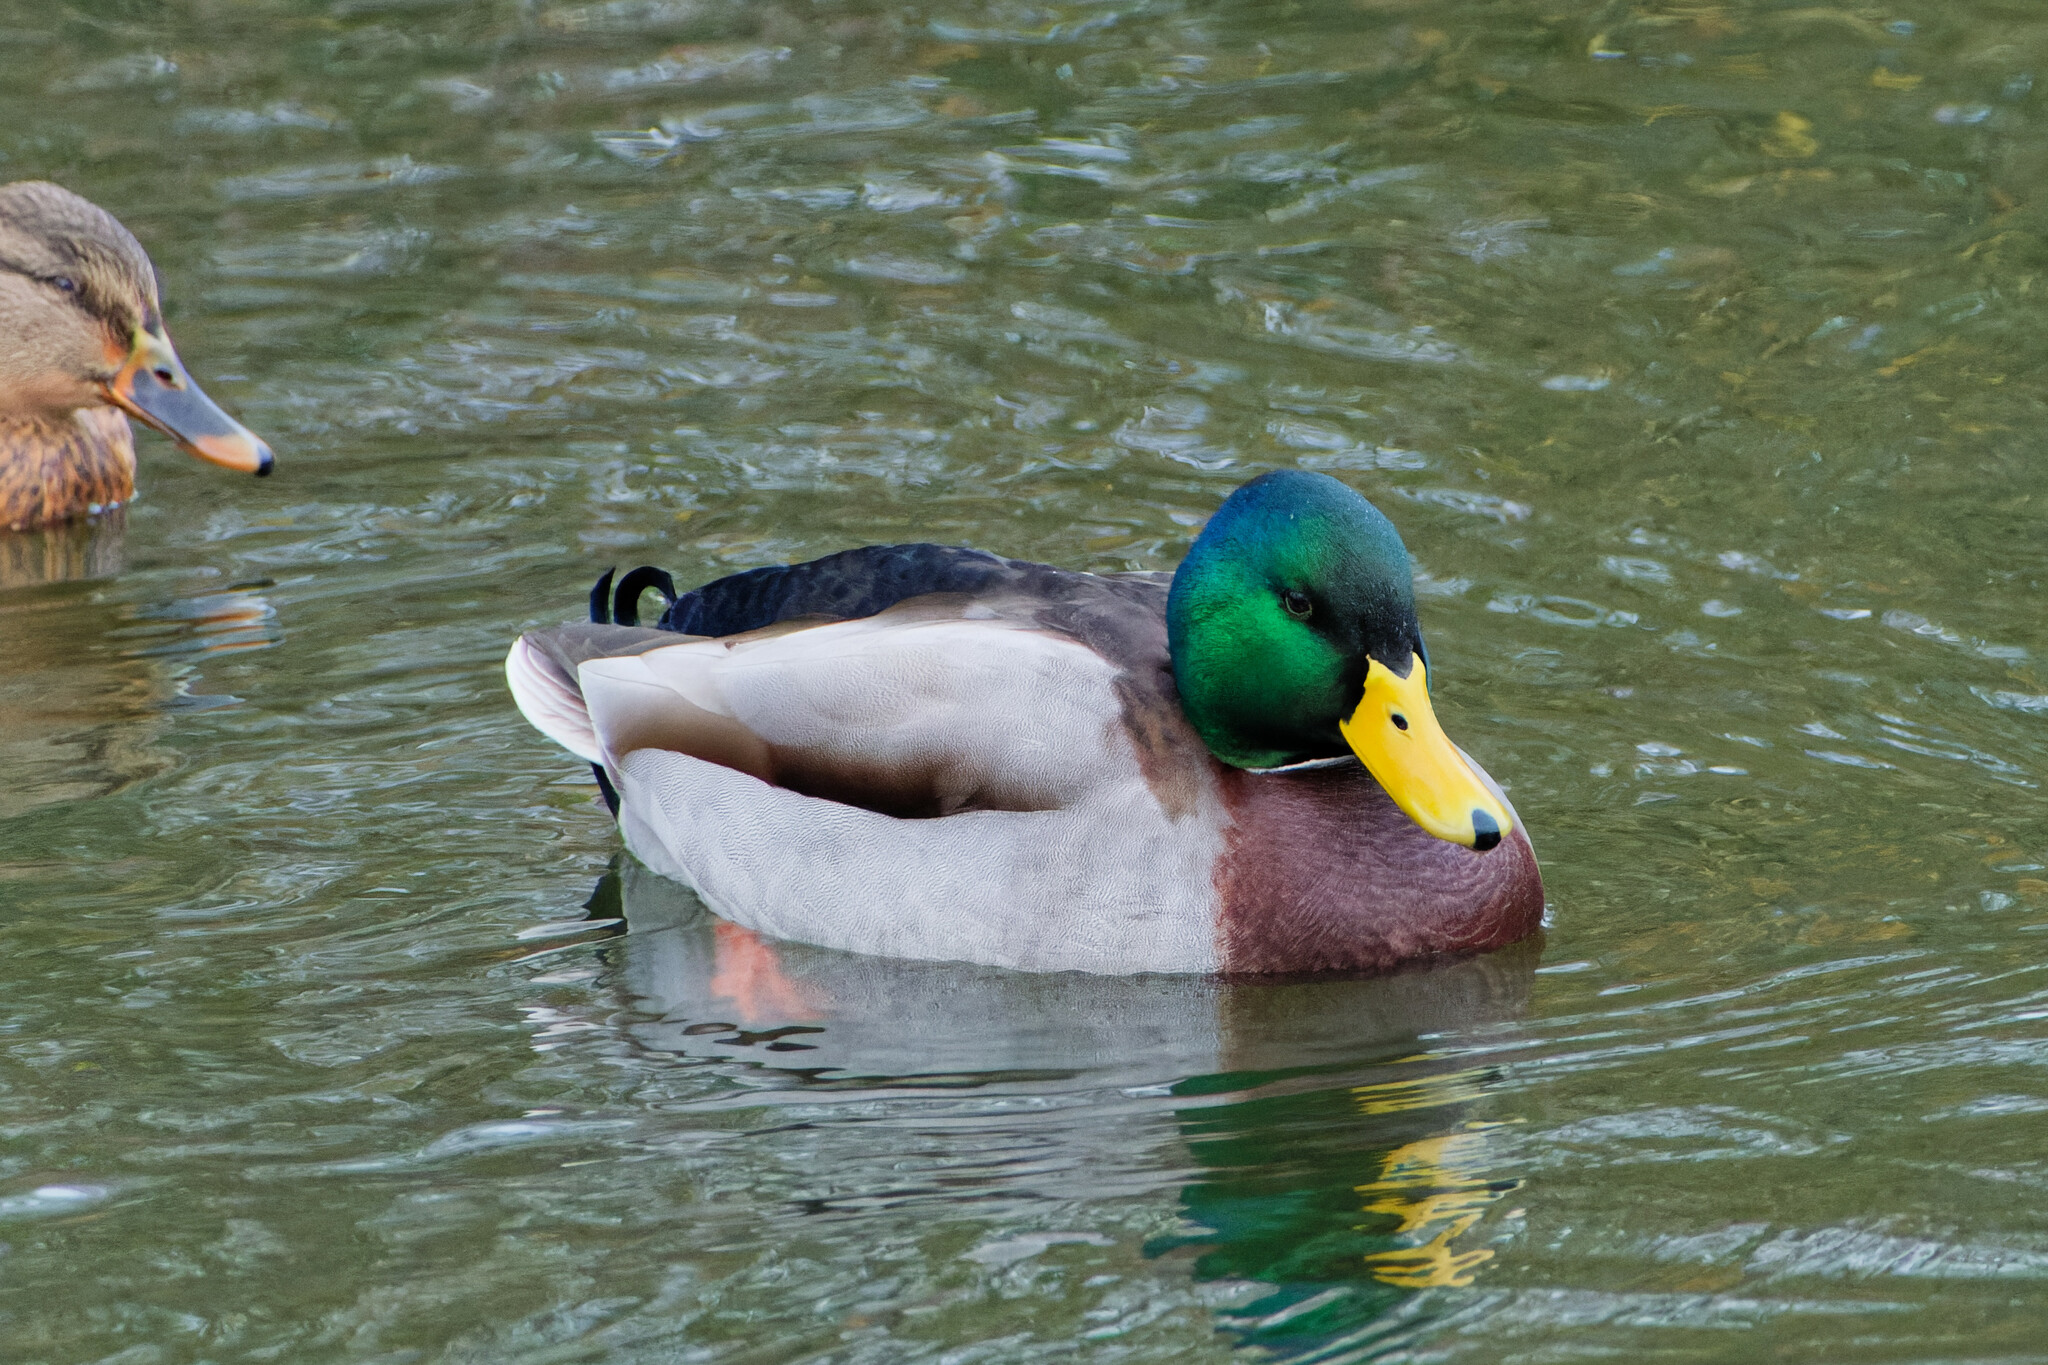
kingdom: Animalia
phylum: Chordata
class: Aves
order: Anseriformes
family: Anatidae
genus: Anas
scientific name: Anas platyrhynchos
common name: Mallard
